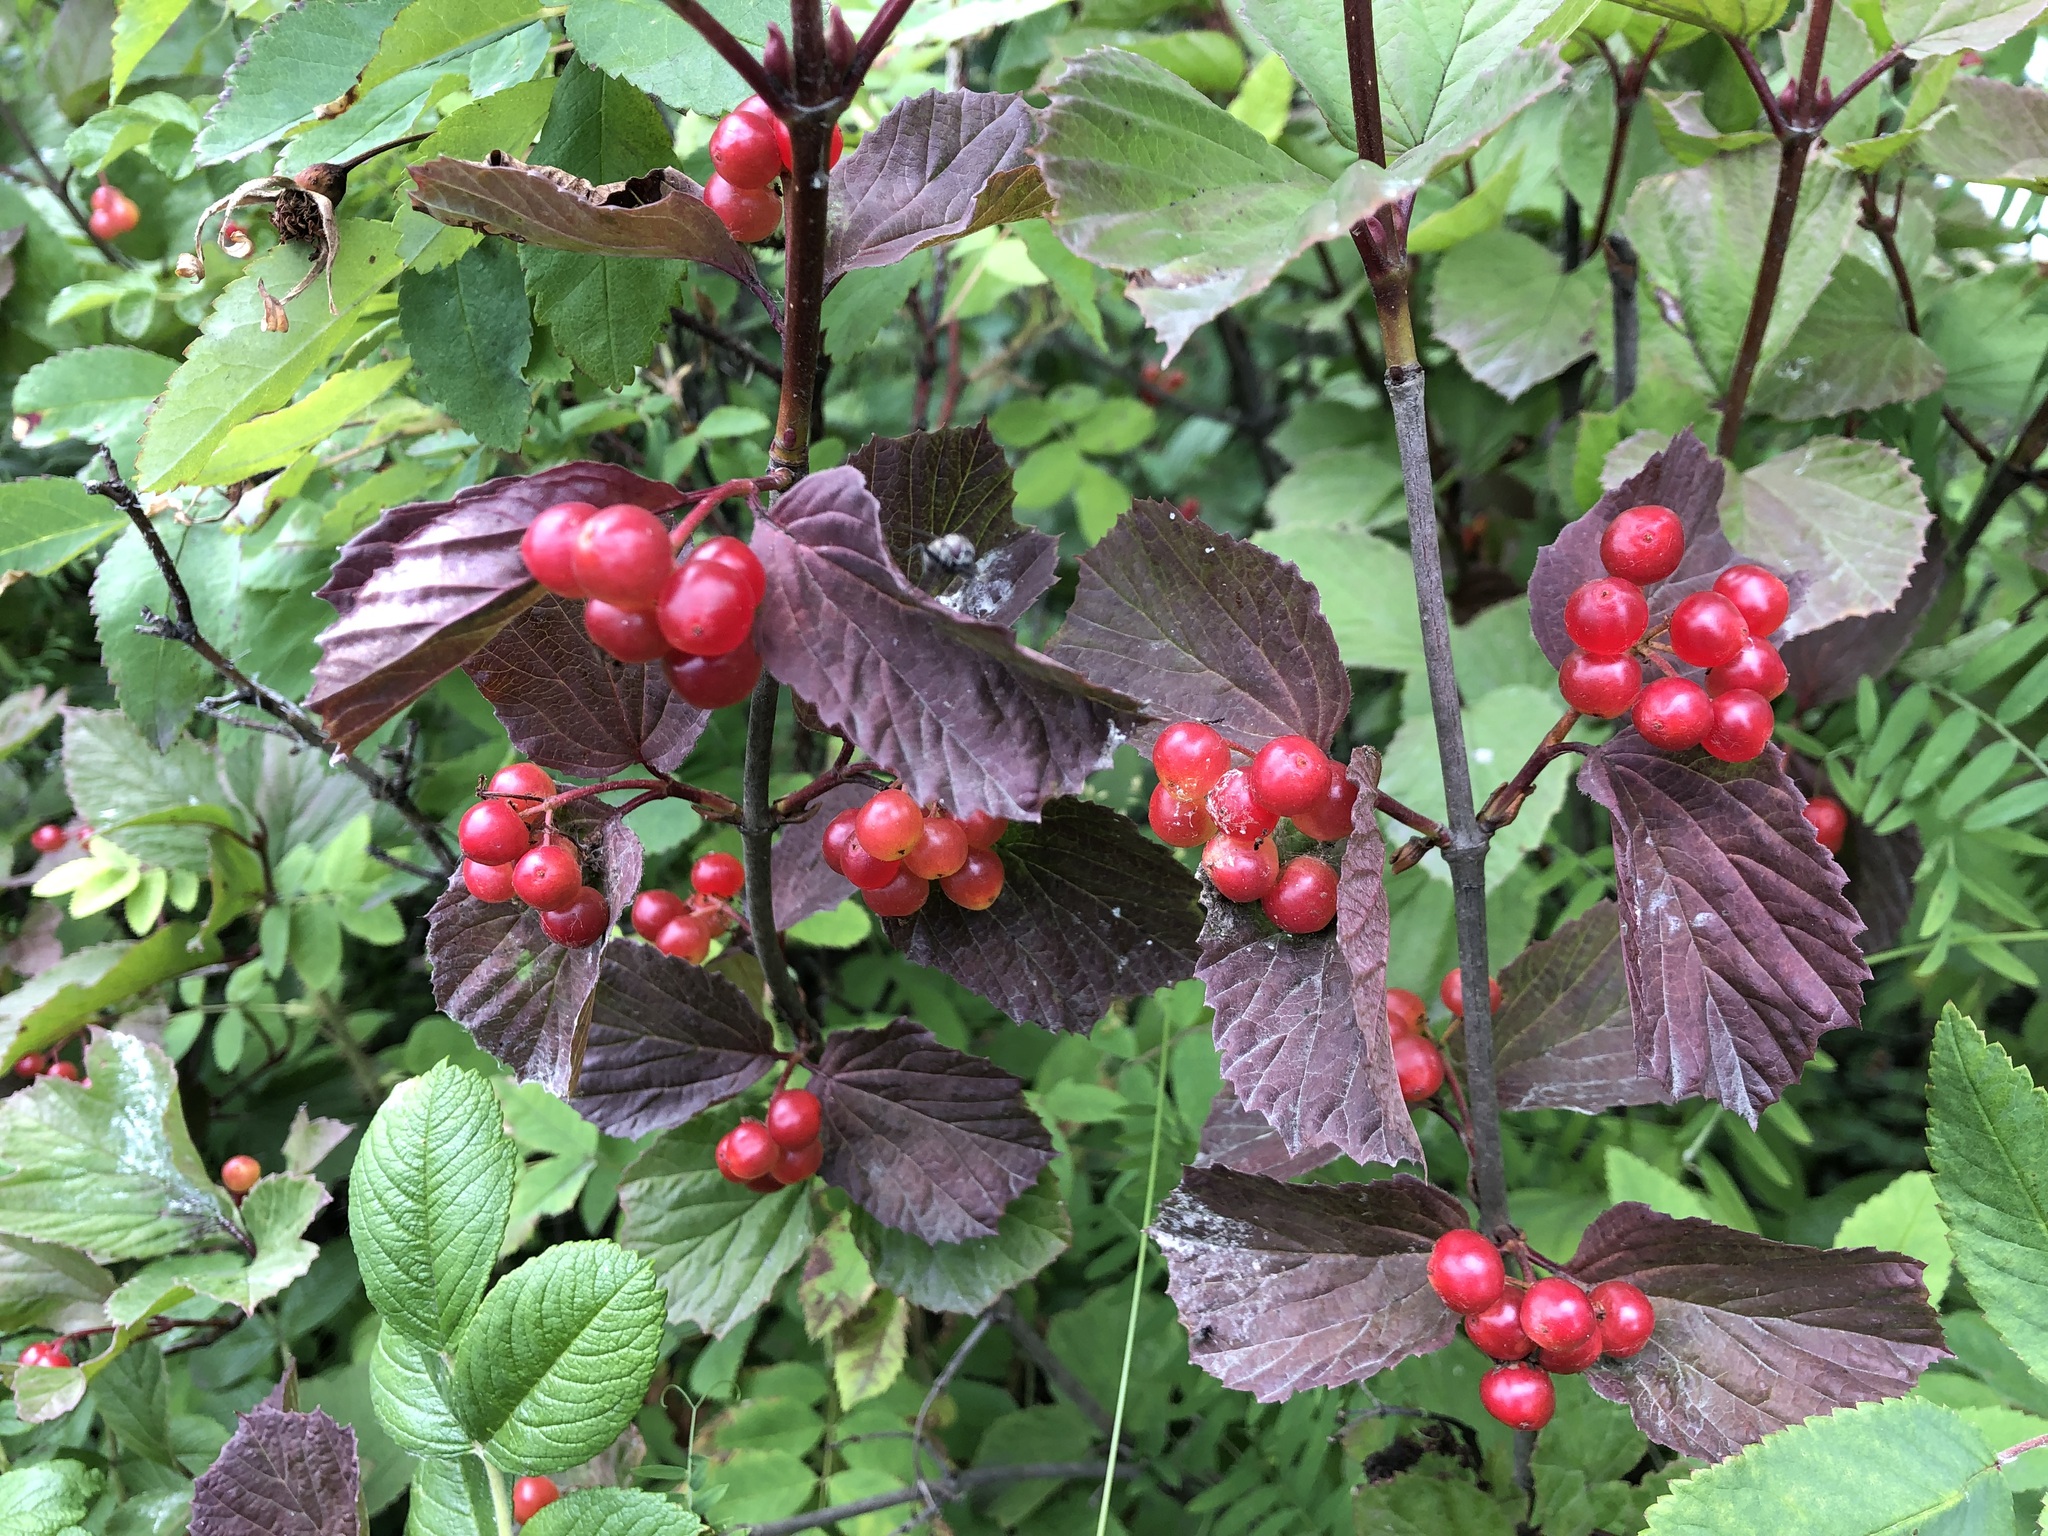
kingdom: Plantae
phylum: Tracheophyta
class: Magnoliopsida
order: Dipsacales
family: Viburnaceae
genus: Viburnum
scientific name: Viburnum edule
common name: Mooseberry
